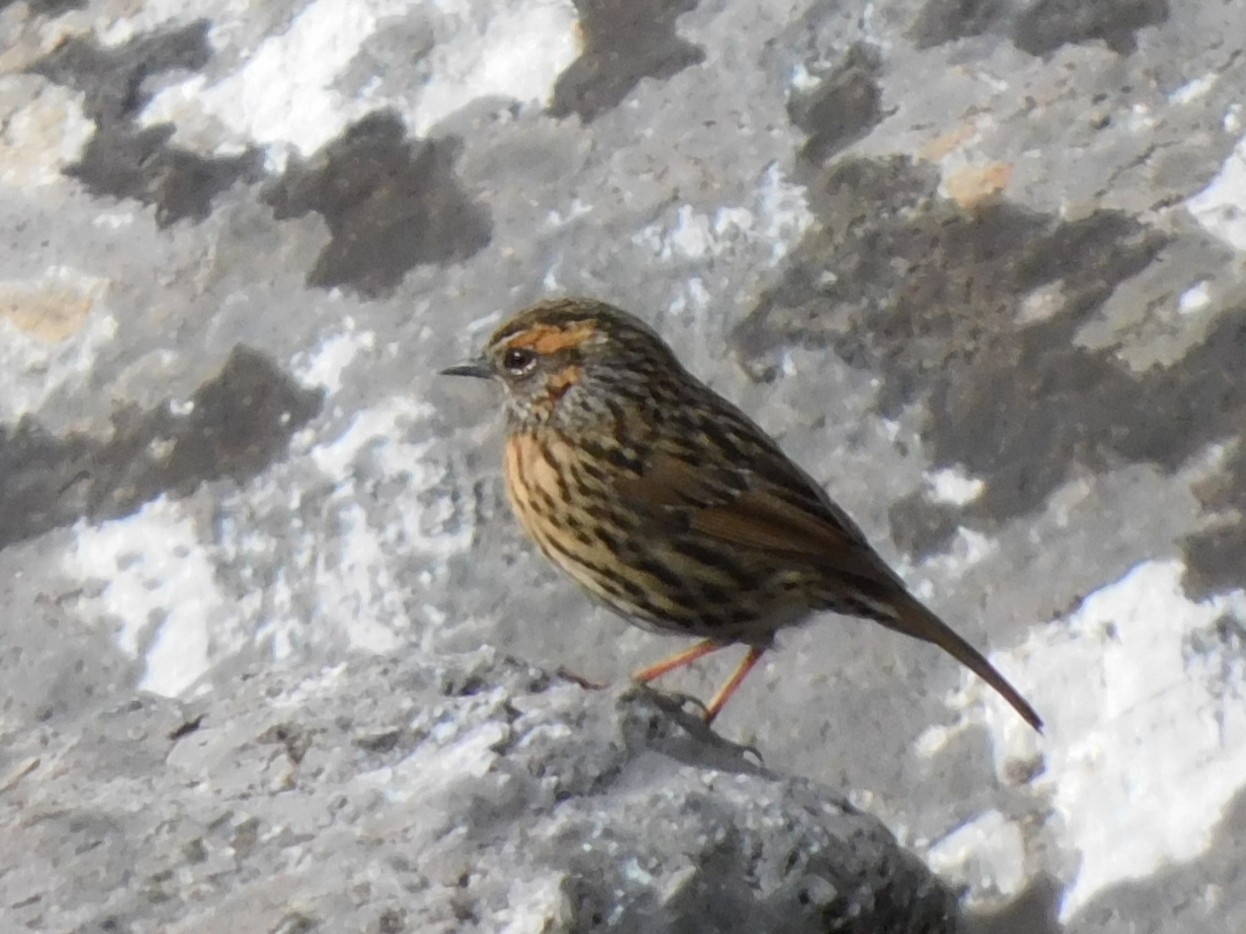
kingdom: Animalia
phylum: Chordata
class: Aves
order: Passeriformes
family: Prunellidae
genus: Prunella
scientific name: Prunella strophiata
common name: Rufous-breasted accentor
